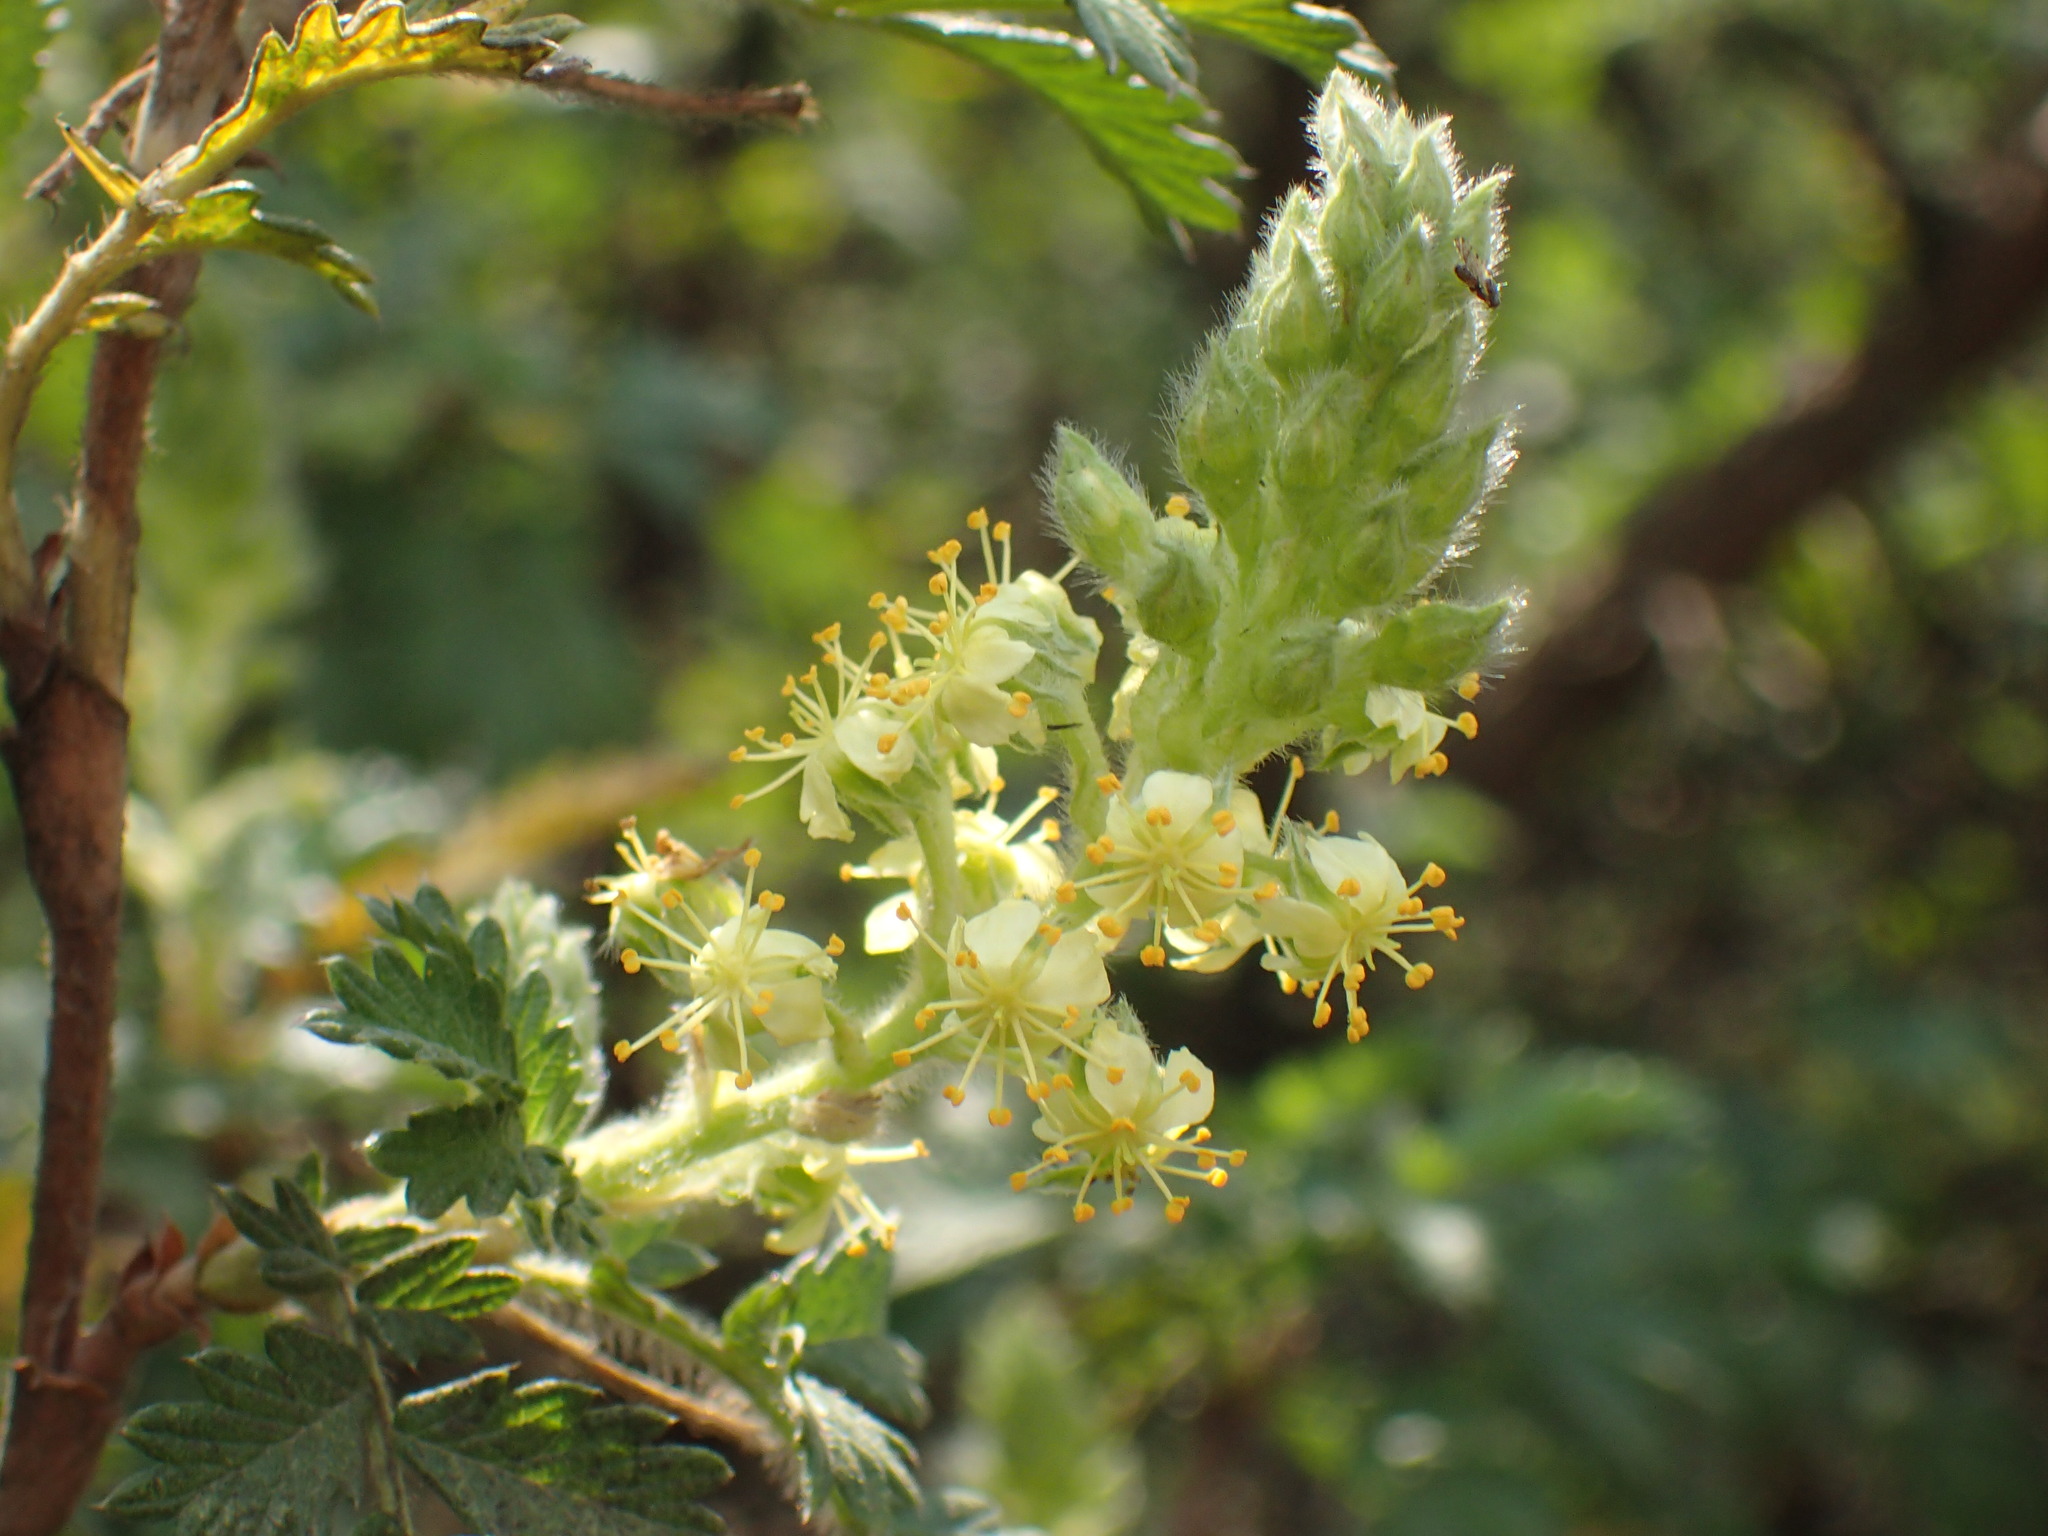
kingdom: Plantae
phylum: Tracheophyta
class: Magnoliopsida
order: Rosales
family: Rosaceae
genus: Leucosidea
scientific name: Leucosidea sericea
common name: Oldwood
